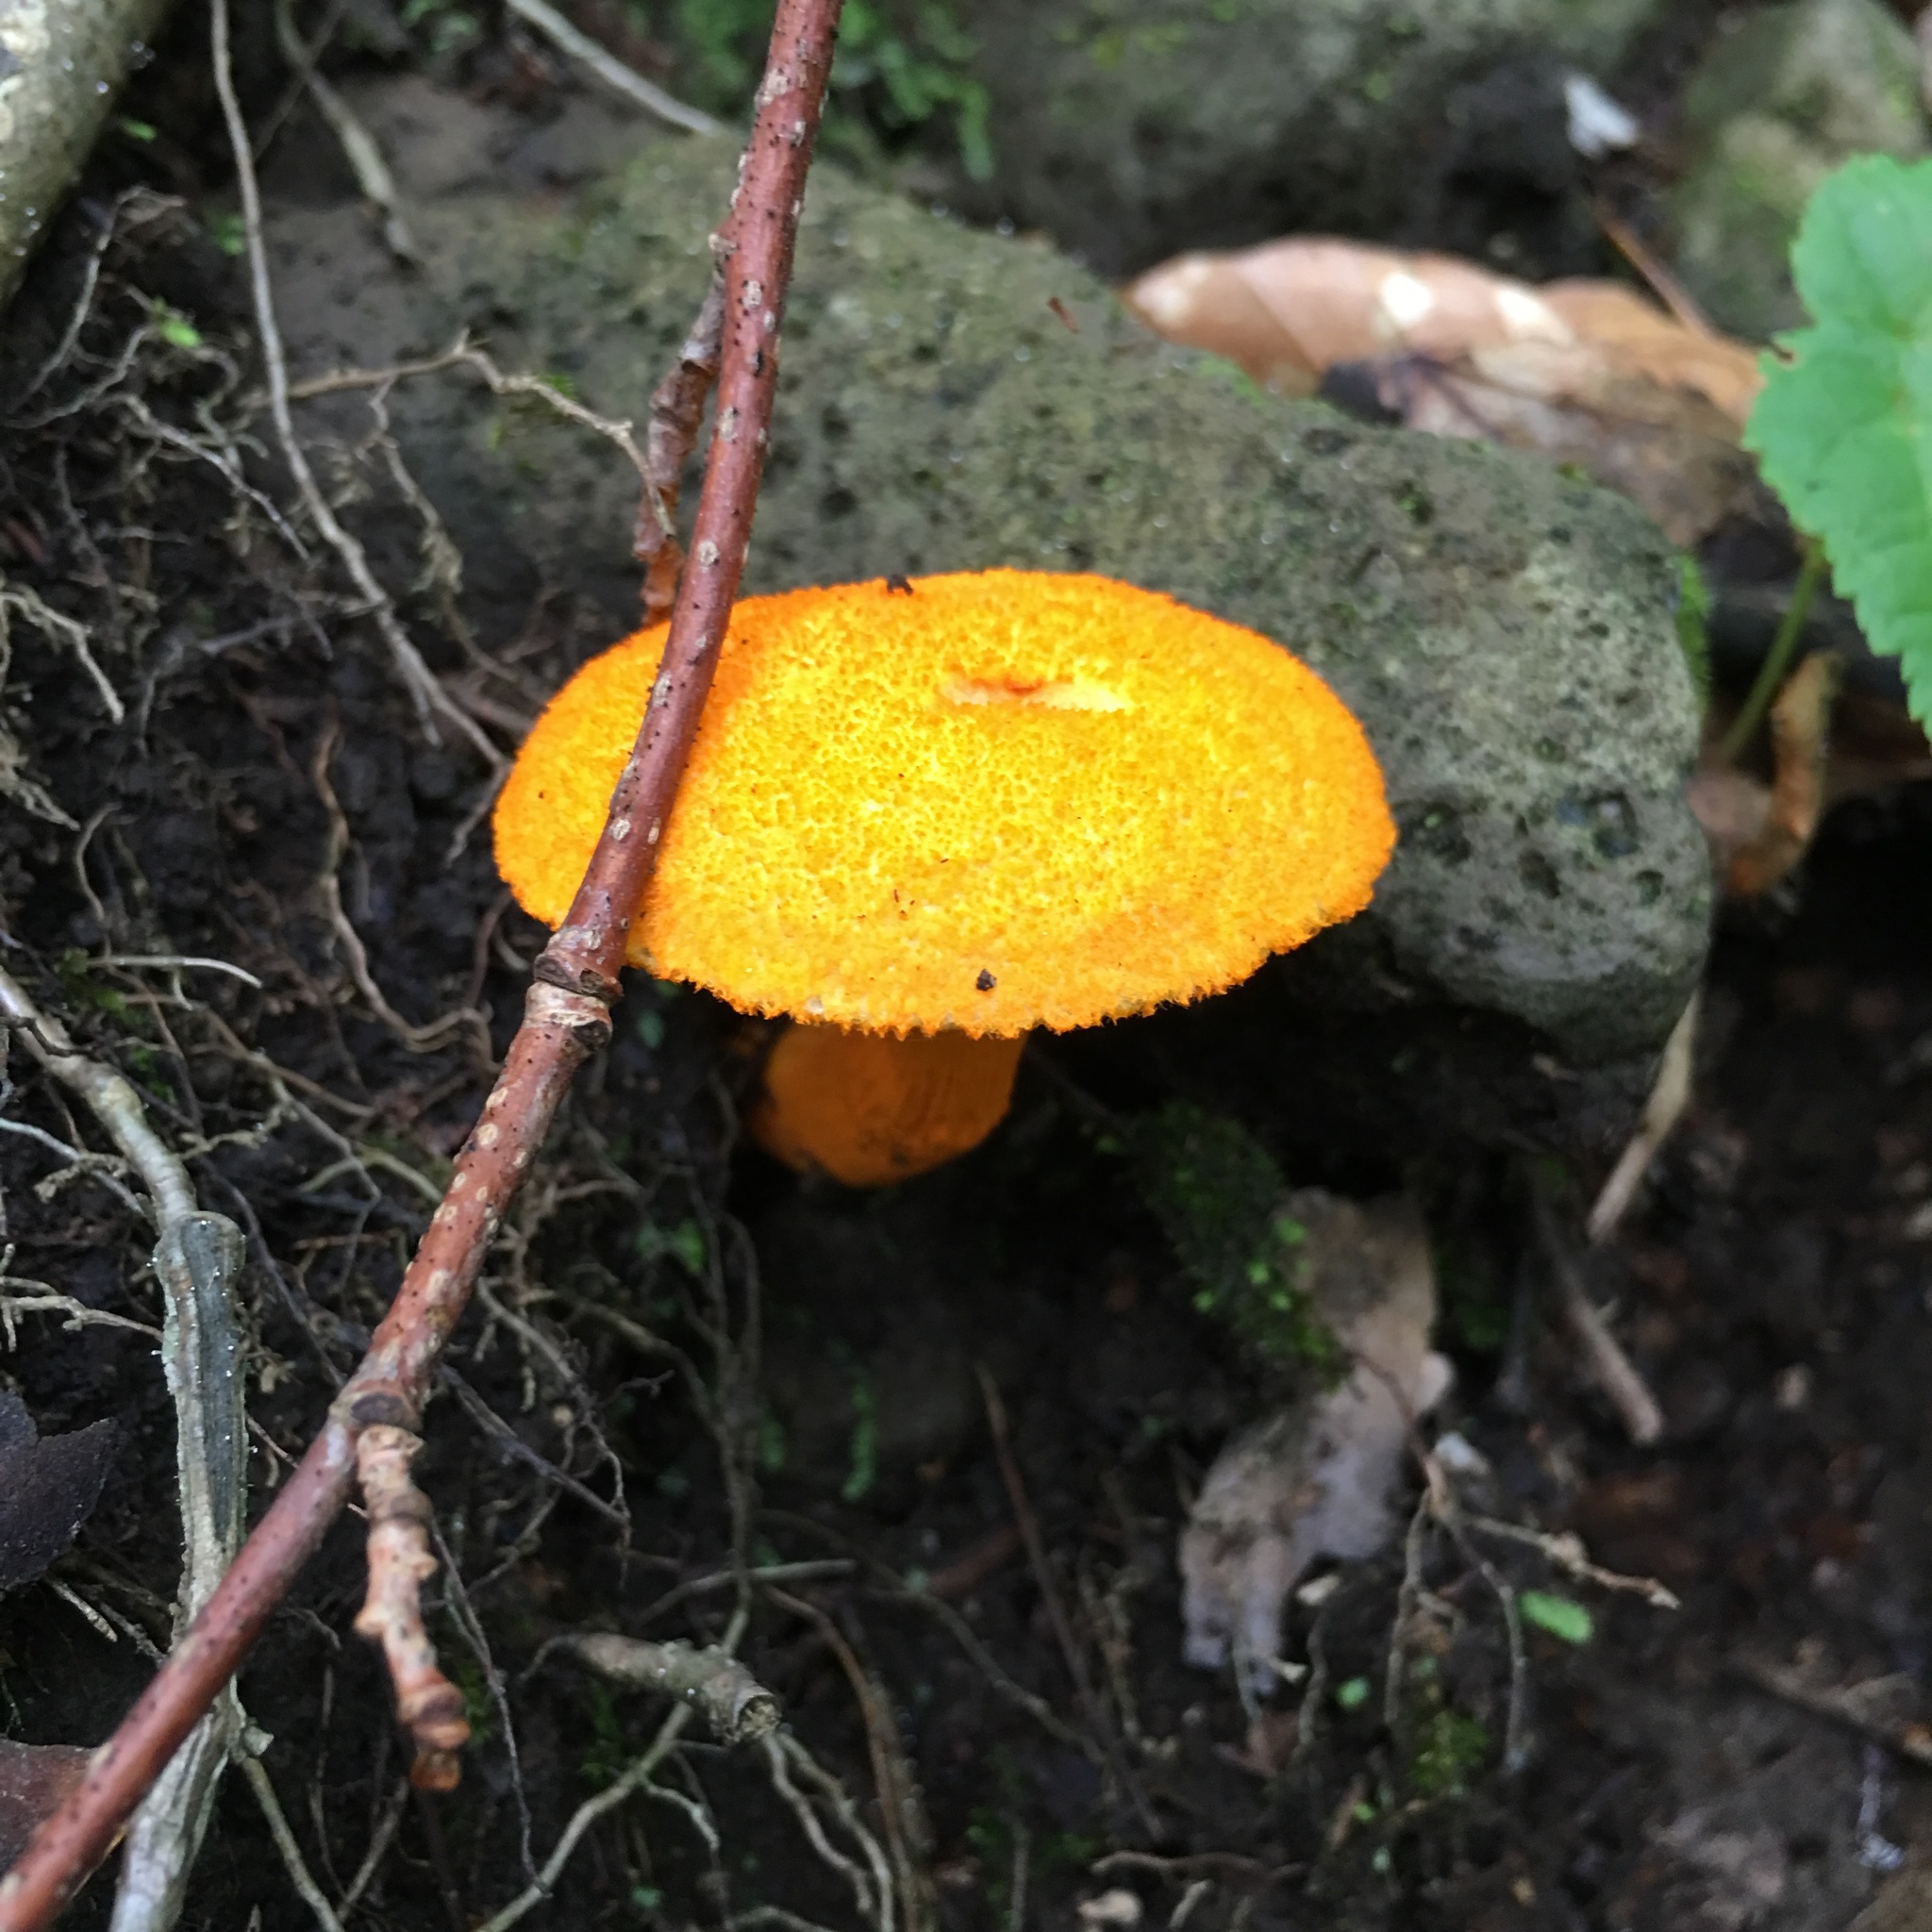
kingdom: Fungi
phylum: Basidiomycota
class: Agaricomycetes
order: Boletales
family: Boletaceae
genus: Aureoboletus
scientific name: Aureoboletus auriflammeus
